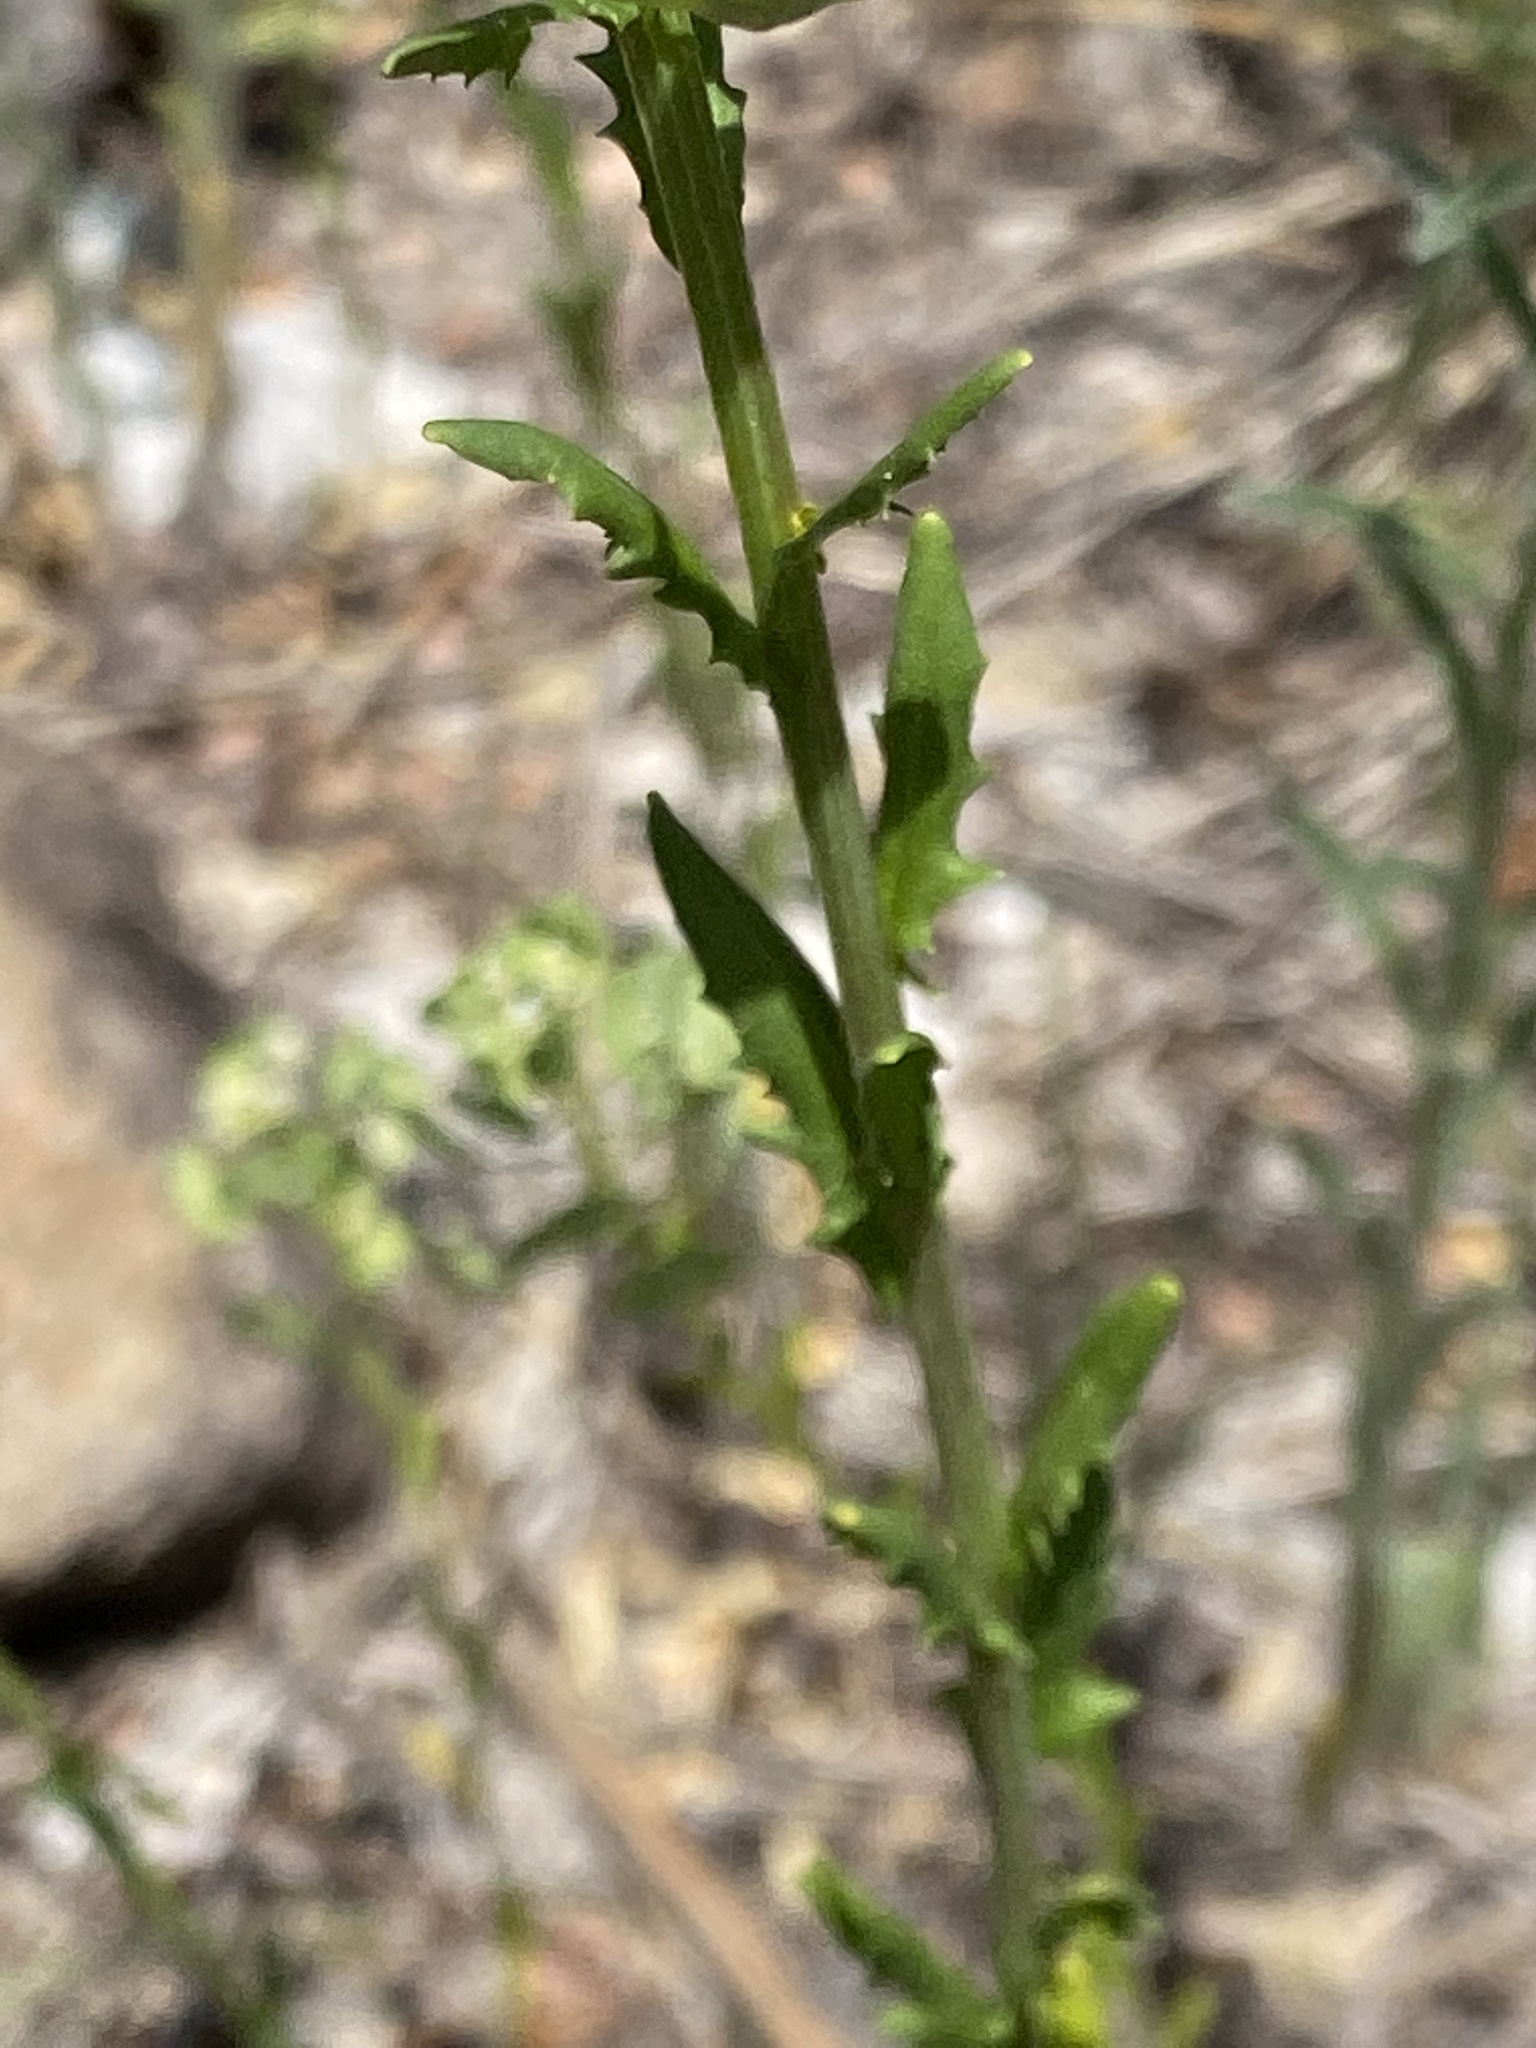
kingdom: Plantae
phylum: Tracheophyta
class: Magnoliopsida
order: Brassicales
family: Brassicaceae
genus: Thlaspi
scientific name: Thlaspi arvense
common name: Field pennycress
